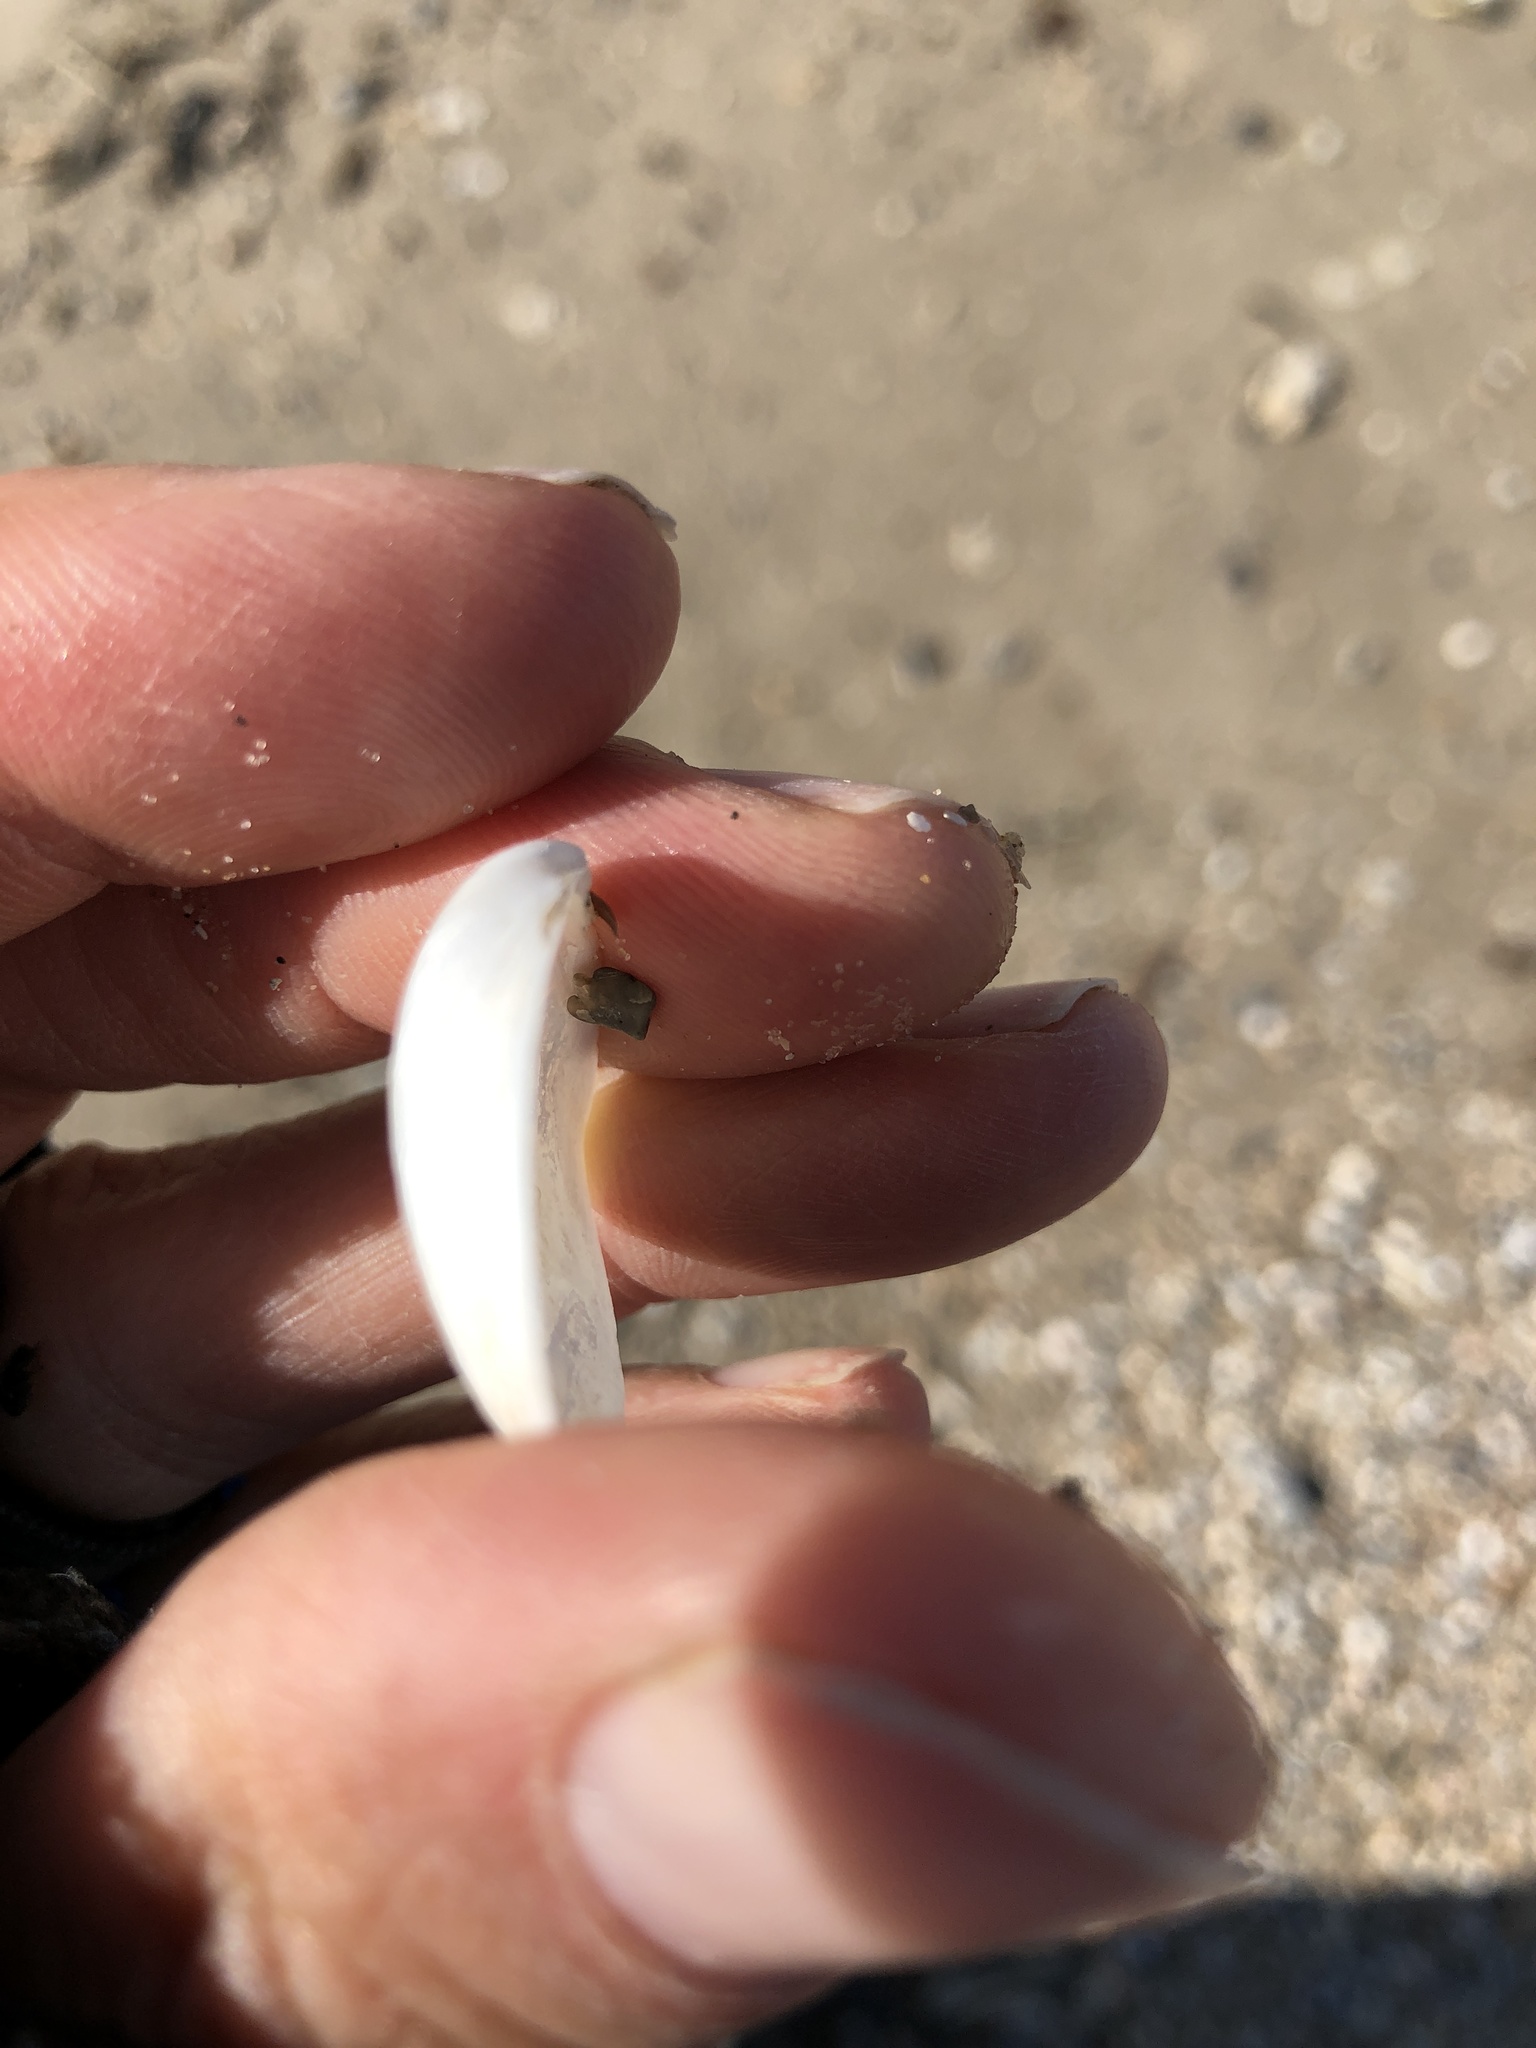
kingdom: Animalia
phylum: Mollusca
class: Bivalvia
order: Cardiida
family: Tellinidae
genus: Austromacoma
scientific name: Austromacoma constricta
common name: Constricted macoma
